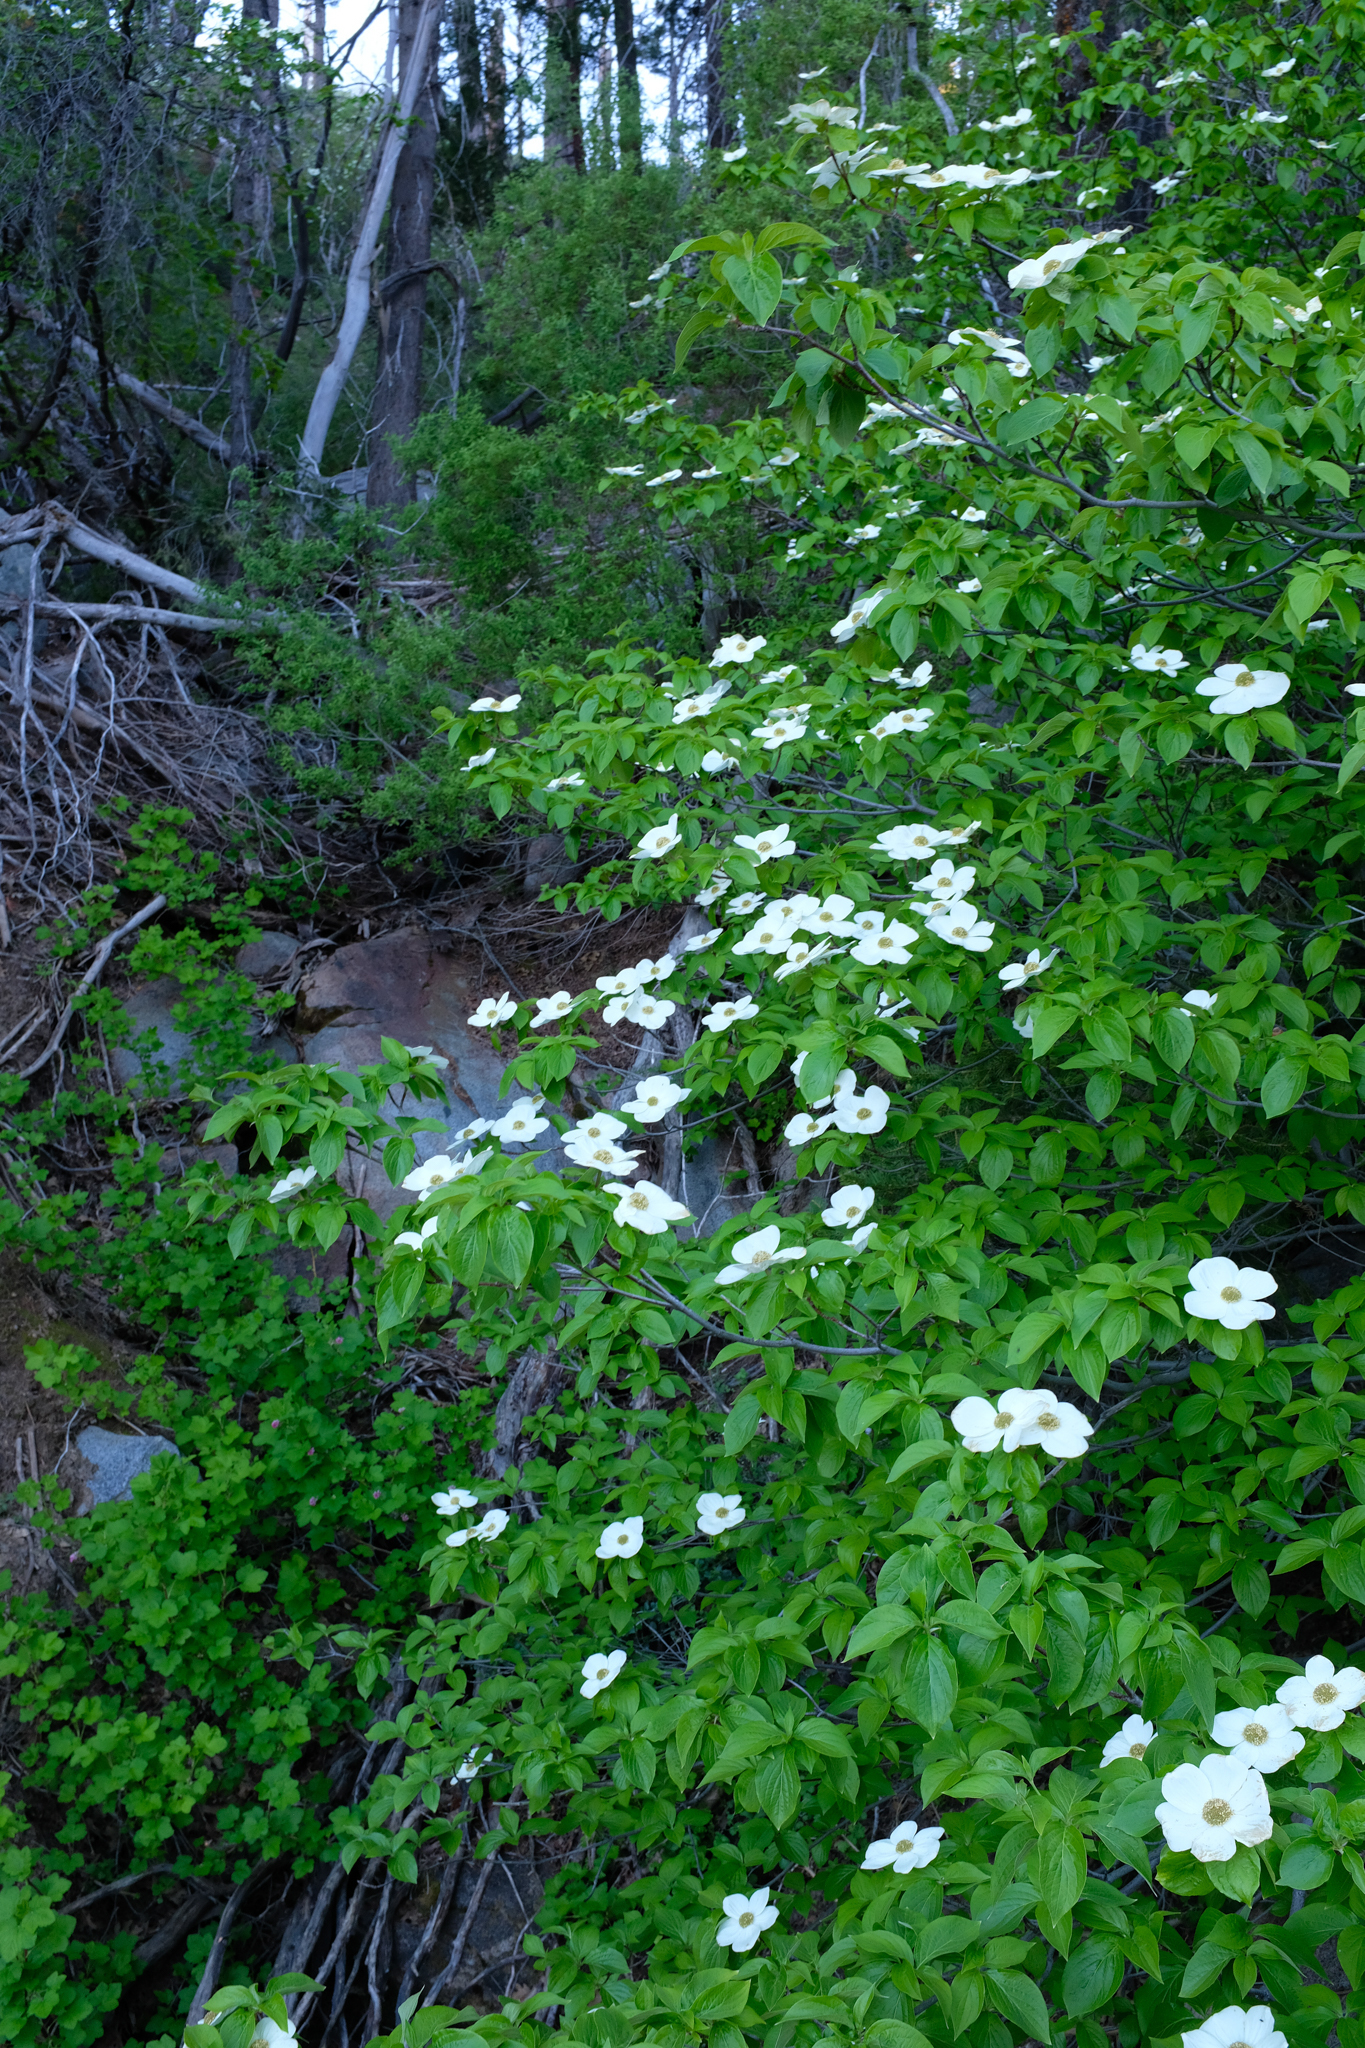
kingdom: Plantae
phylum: Tracheophyta
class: Magnoliopsida
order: Cornales
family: Cornaceae
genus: Cornus
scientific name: Cornus nuttallii
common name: Pacific dogwood
